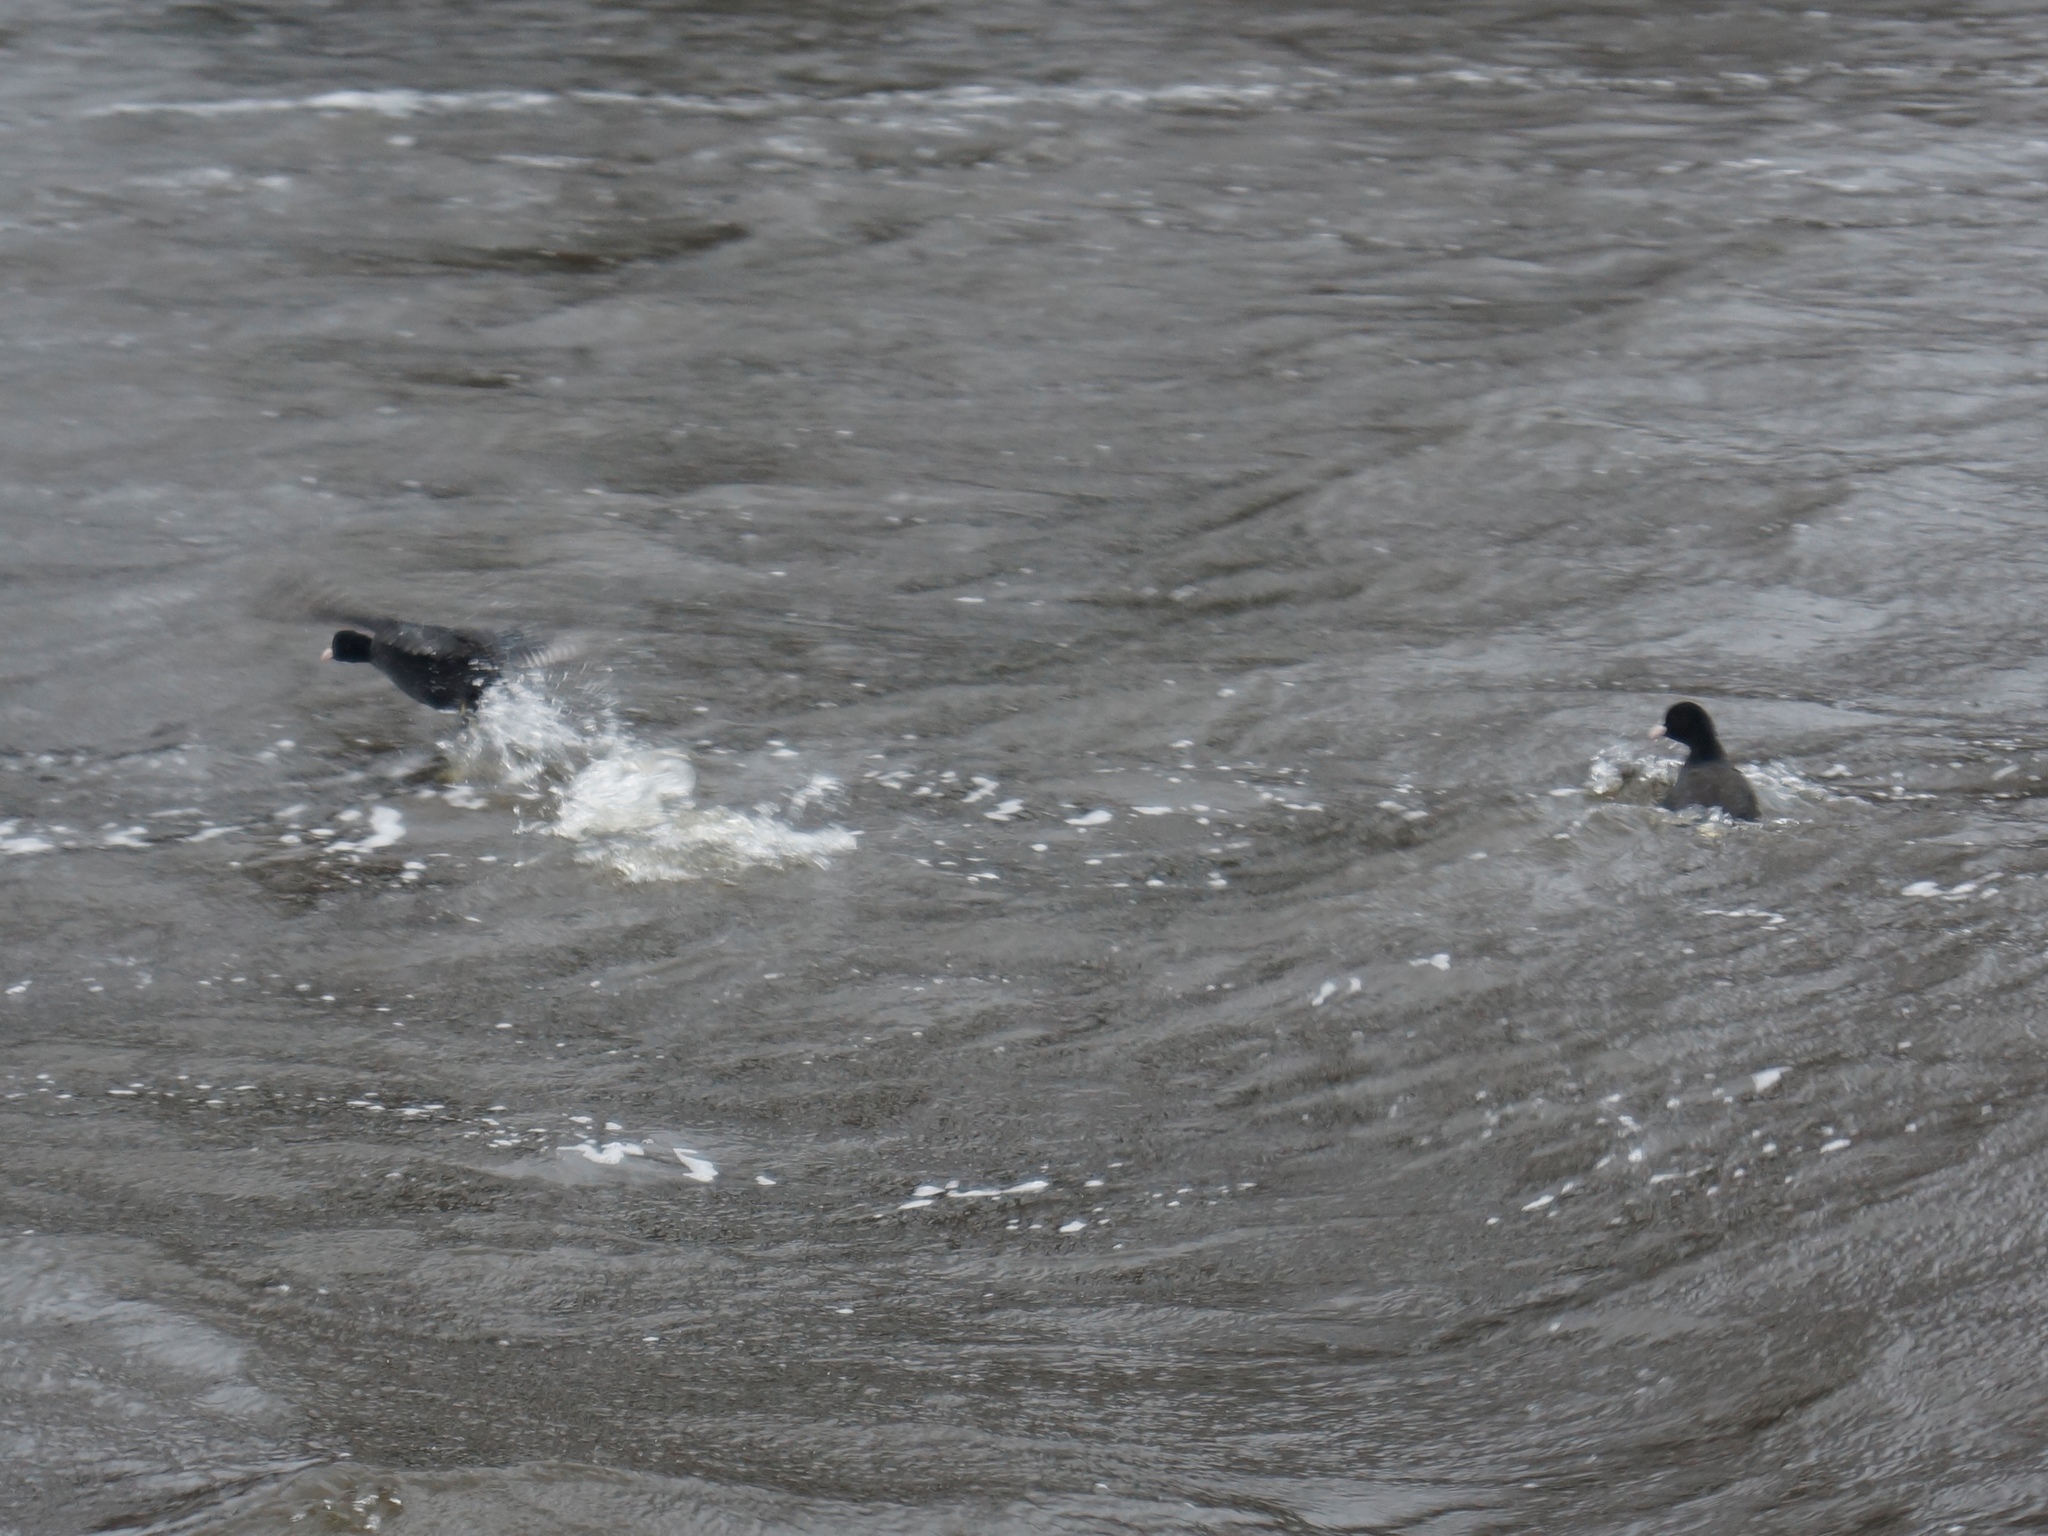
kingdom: Animalia
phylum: Chordata
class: Aves
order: Gruiformes
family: Rallidae
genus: Fulica
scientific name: Fulica atra
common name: Eurasian coot
